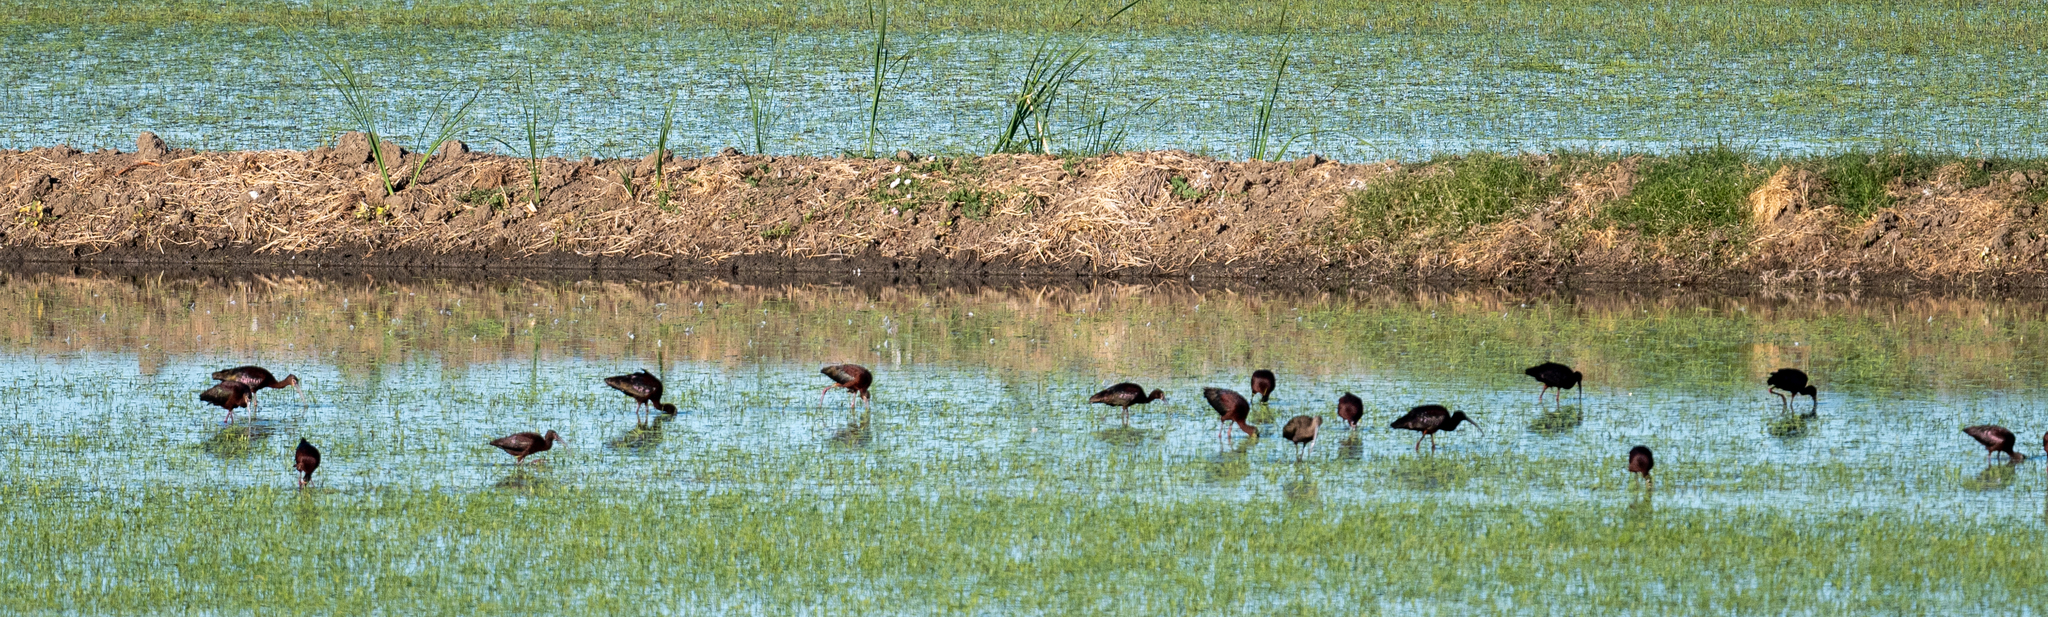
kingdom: Animalia
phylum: Chordata
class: Aves
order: Pelecaniformes
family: Threskiornithidae
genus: Plegadis
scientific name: Plegadis chihi
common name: White-faced ibis
